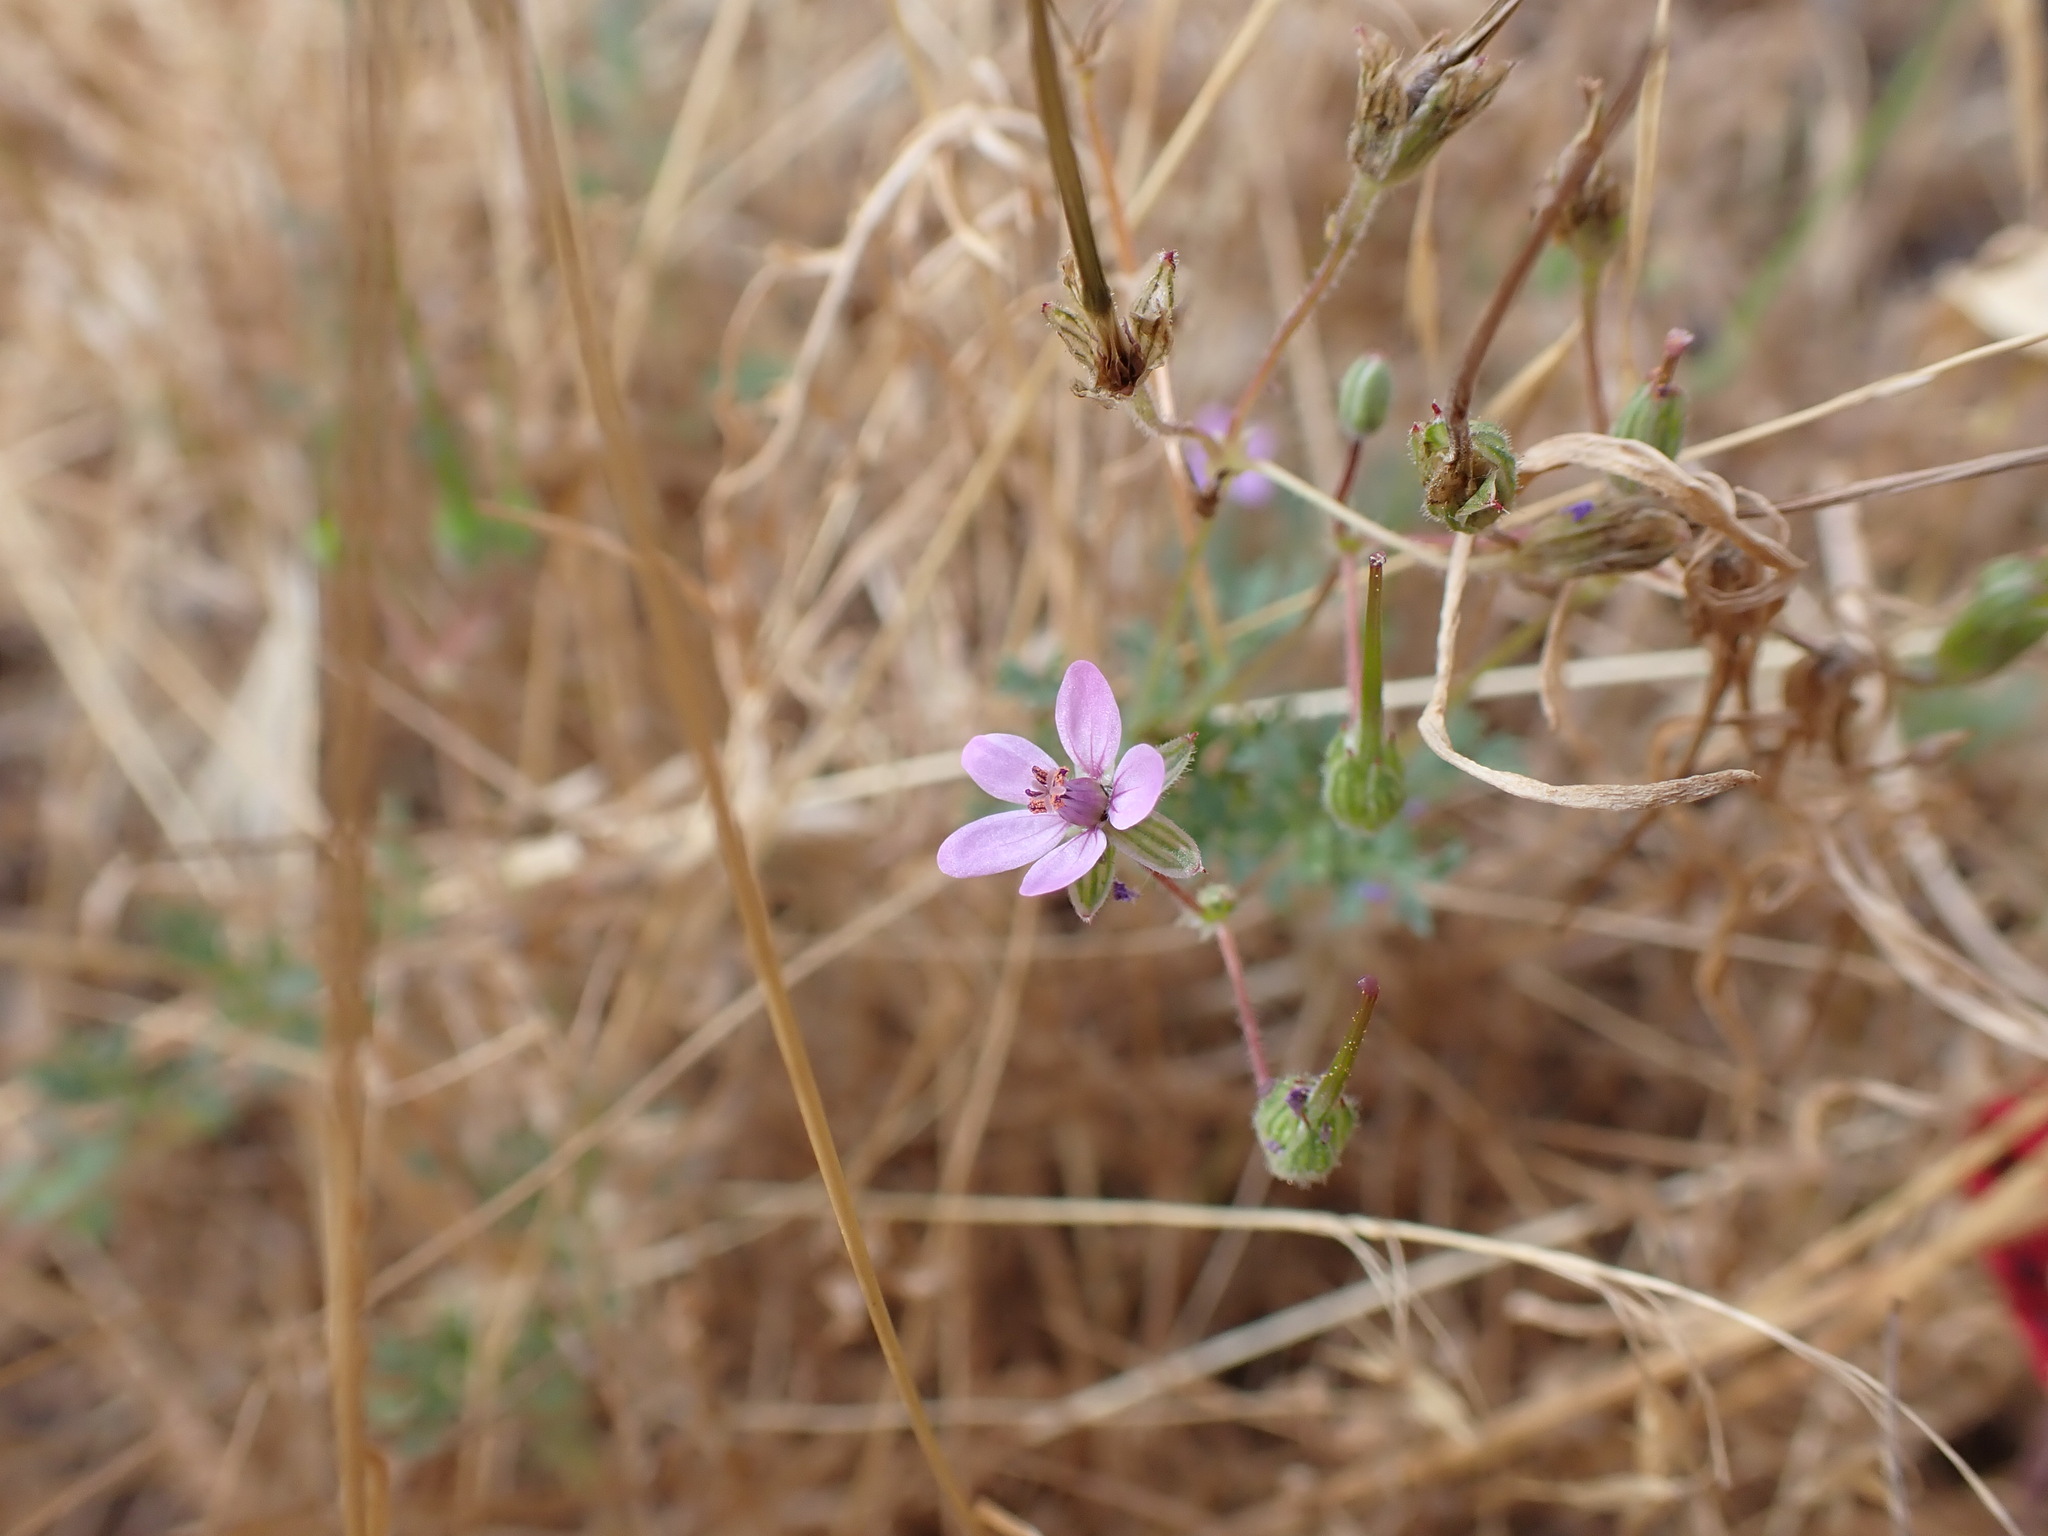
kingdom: Plantae
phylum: Tracheophyta
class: Magnoliopsida
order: Geraniales
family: Geraniaceae
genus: Erodium
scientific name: Erodium cicutarium
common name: Common stork's-bill
